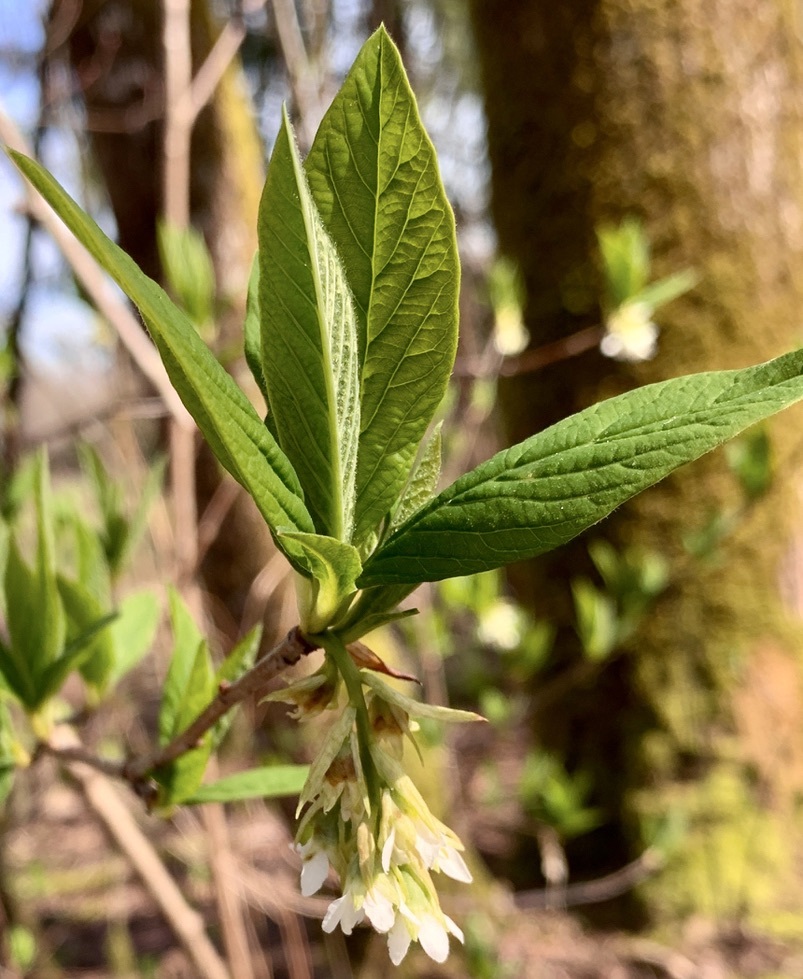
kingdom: Plantae
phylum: Tracheophyta
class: Magnoliopsida
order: Rosales
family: Rosaceae
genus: Oemleria
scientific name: Oemleria cerasiformis
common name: Osoberry
